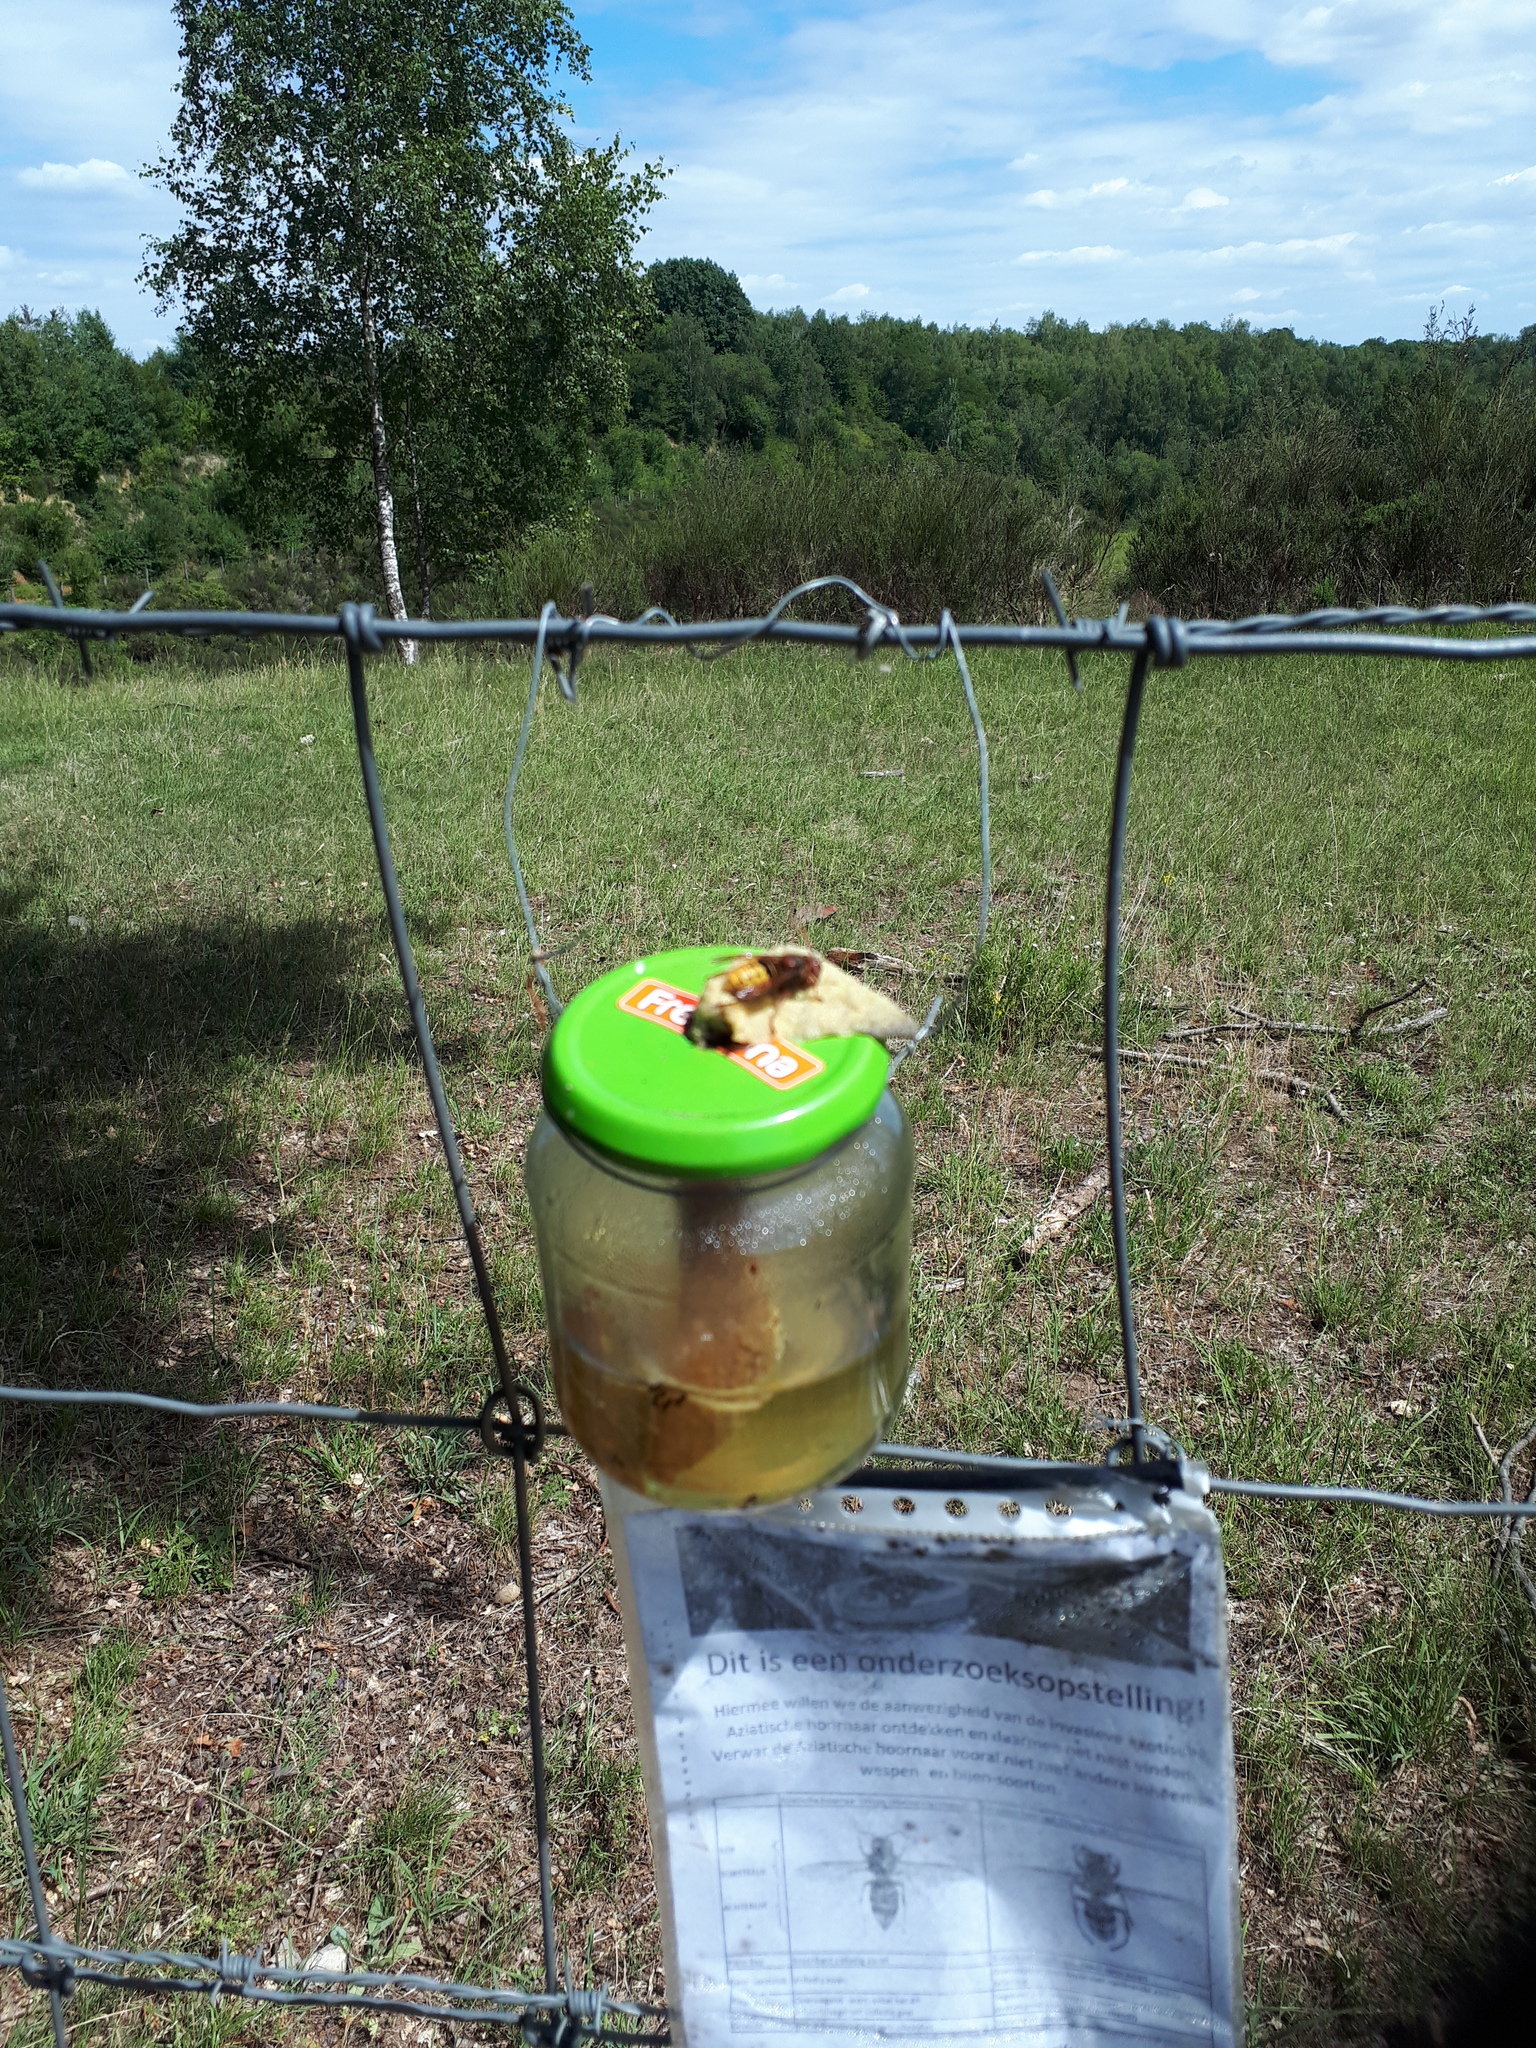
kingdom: Animalia
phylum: Arthropoda
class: Insecta
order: Hymenoptera
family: Vespidae
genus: Vespa
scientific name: Vespa crabro
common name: Hornet
